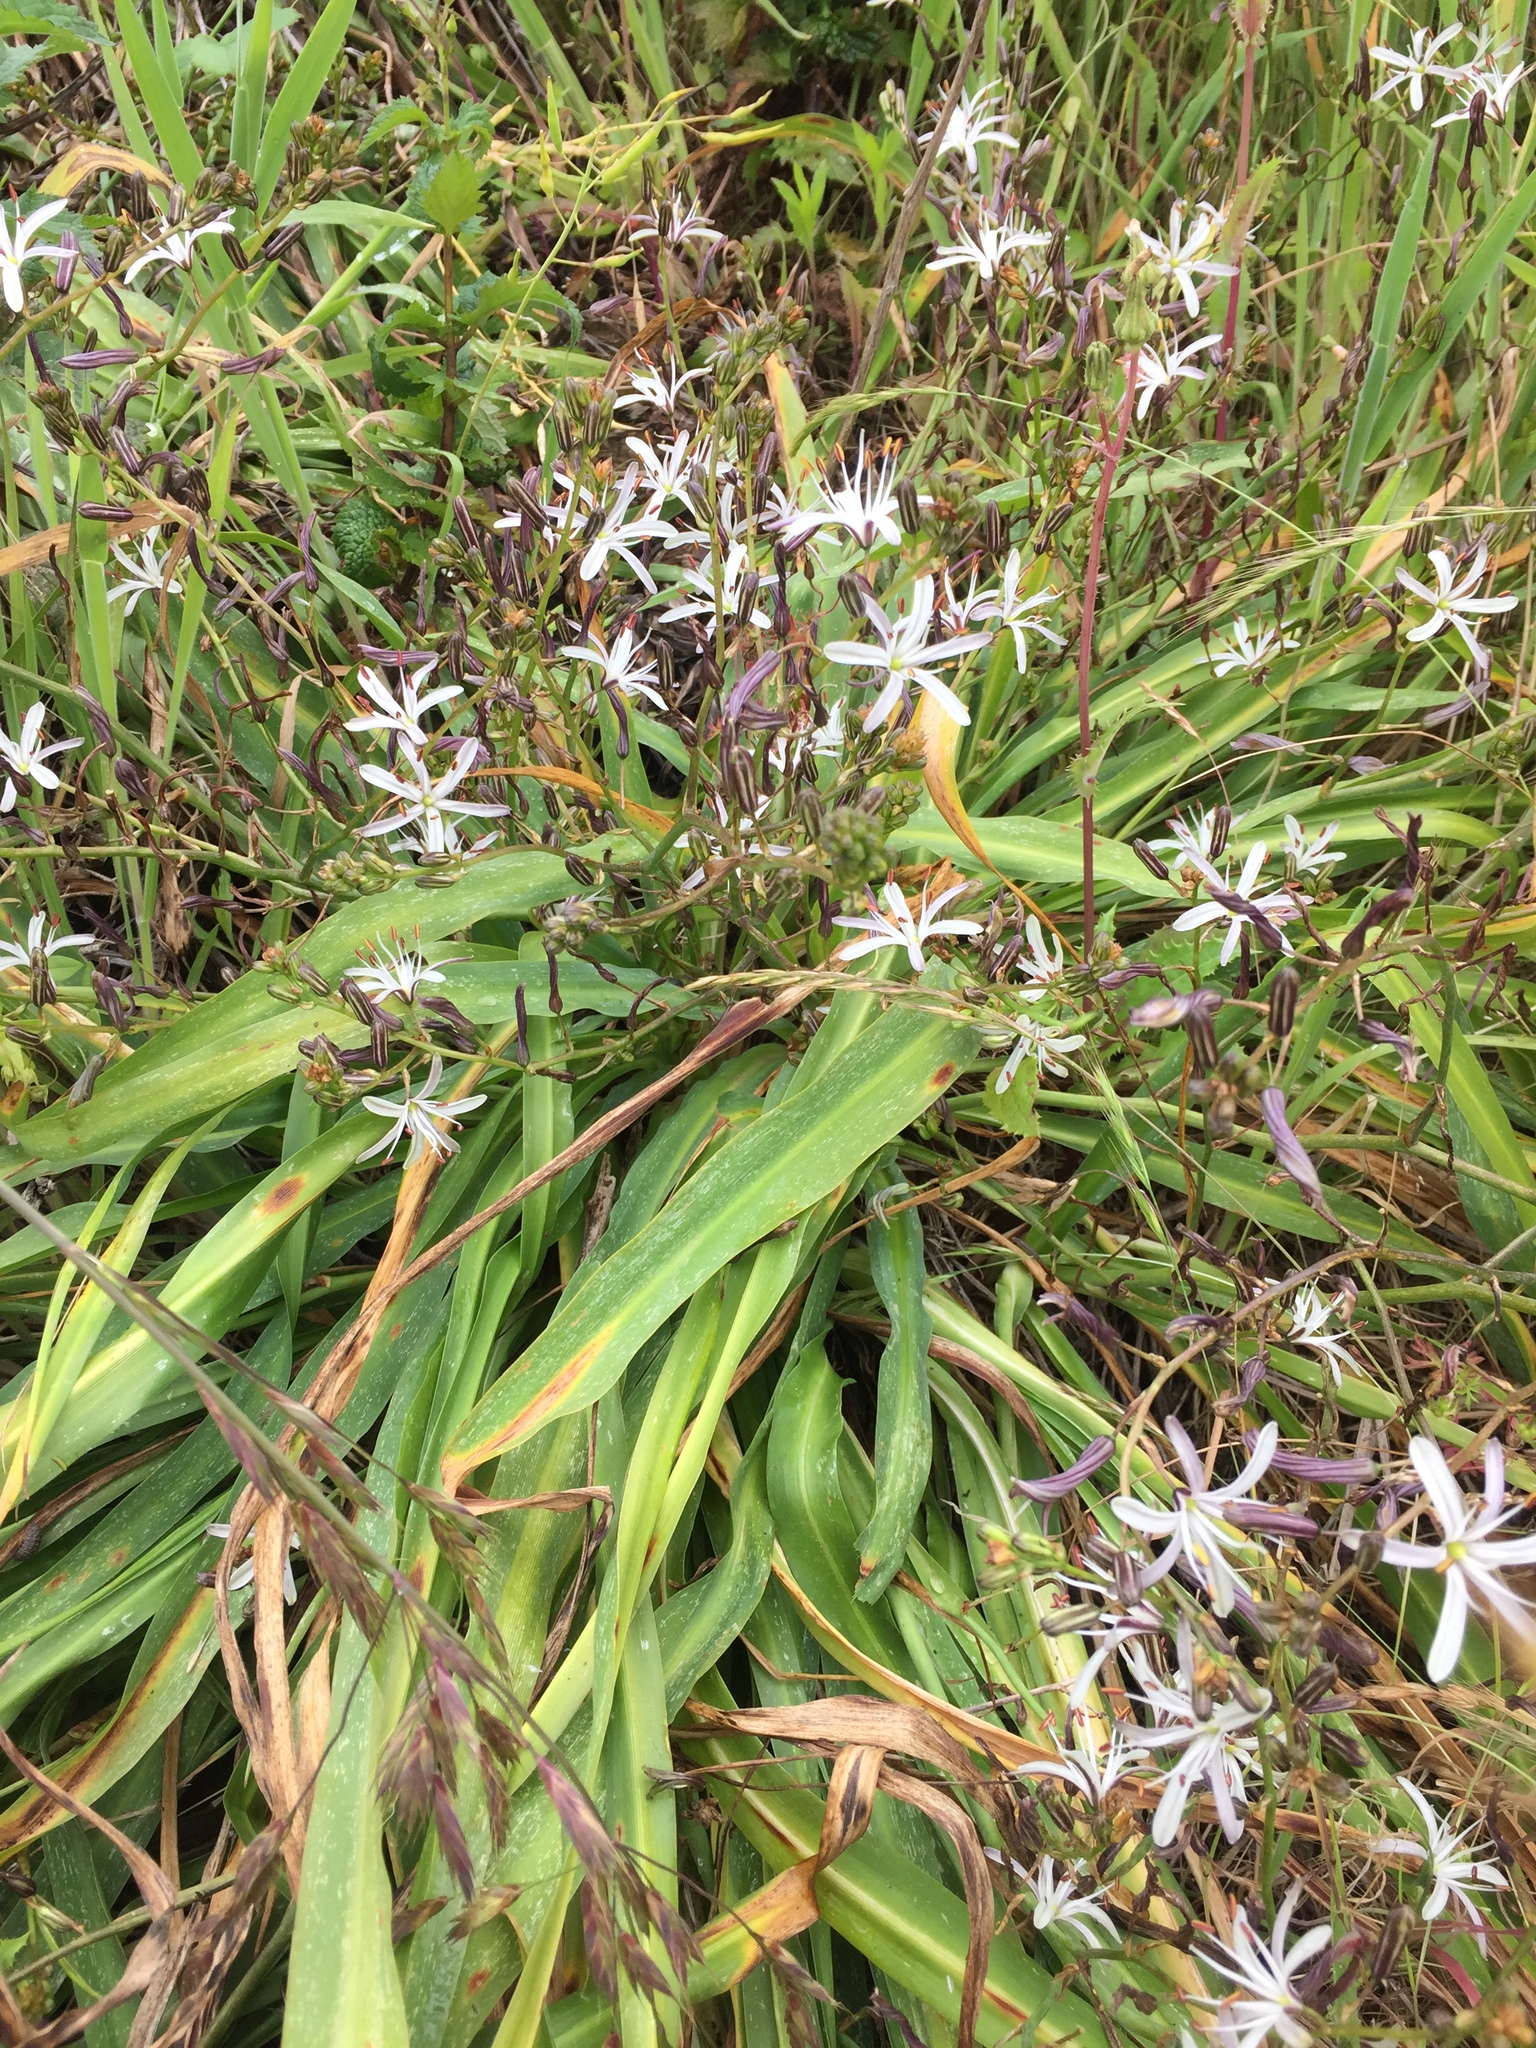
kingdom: Plantae
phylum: Tracheophyta
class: Liliopsida
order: Asparagales
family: Asparagaceae
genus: Chlorogalum
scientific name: Chlorogalum pomeridianum
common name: Amole
